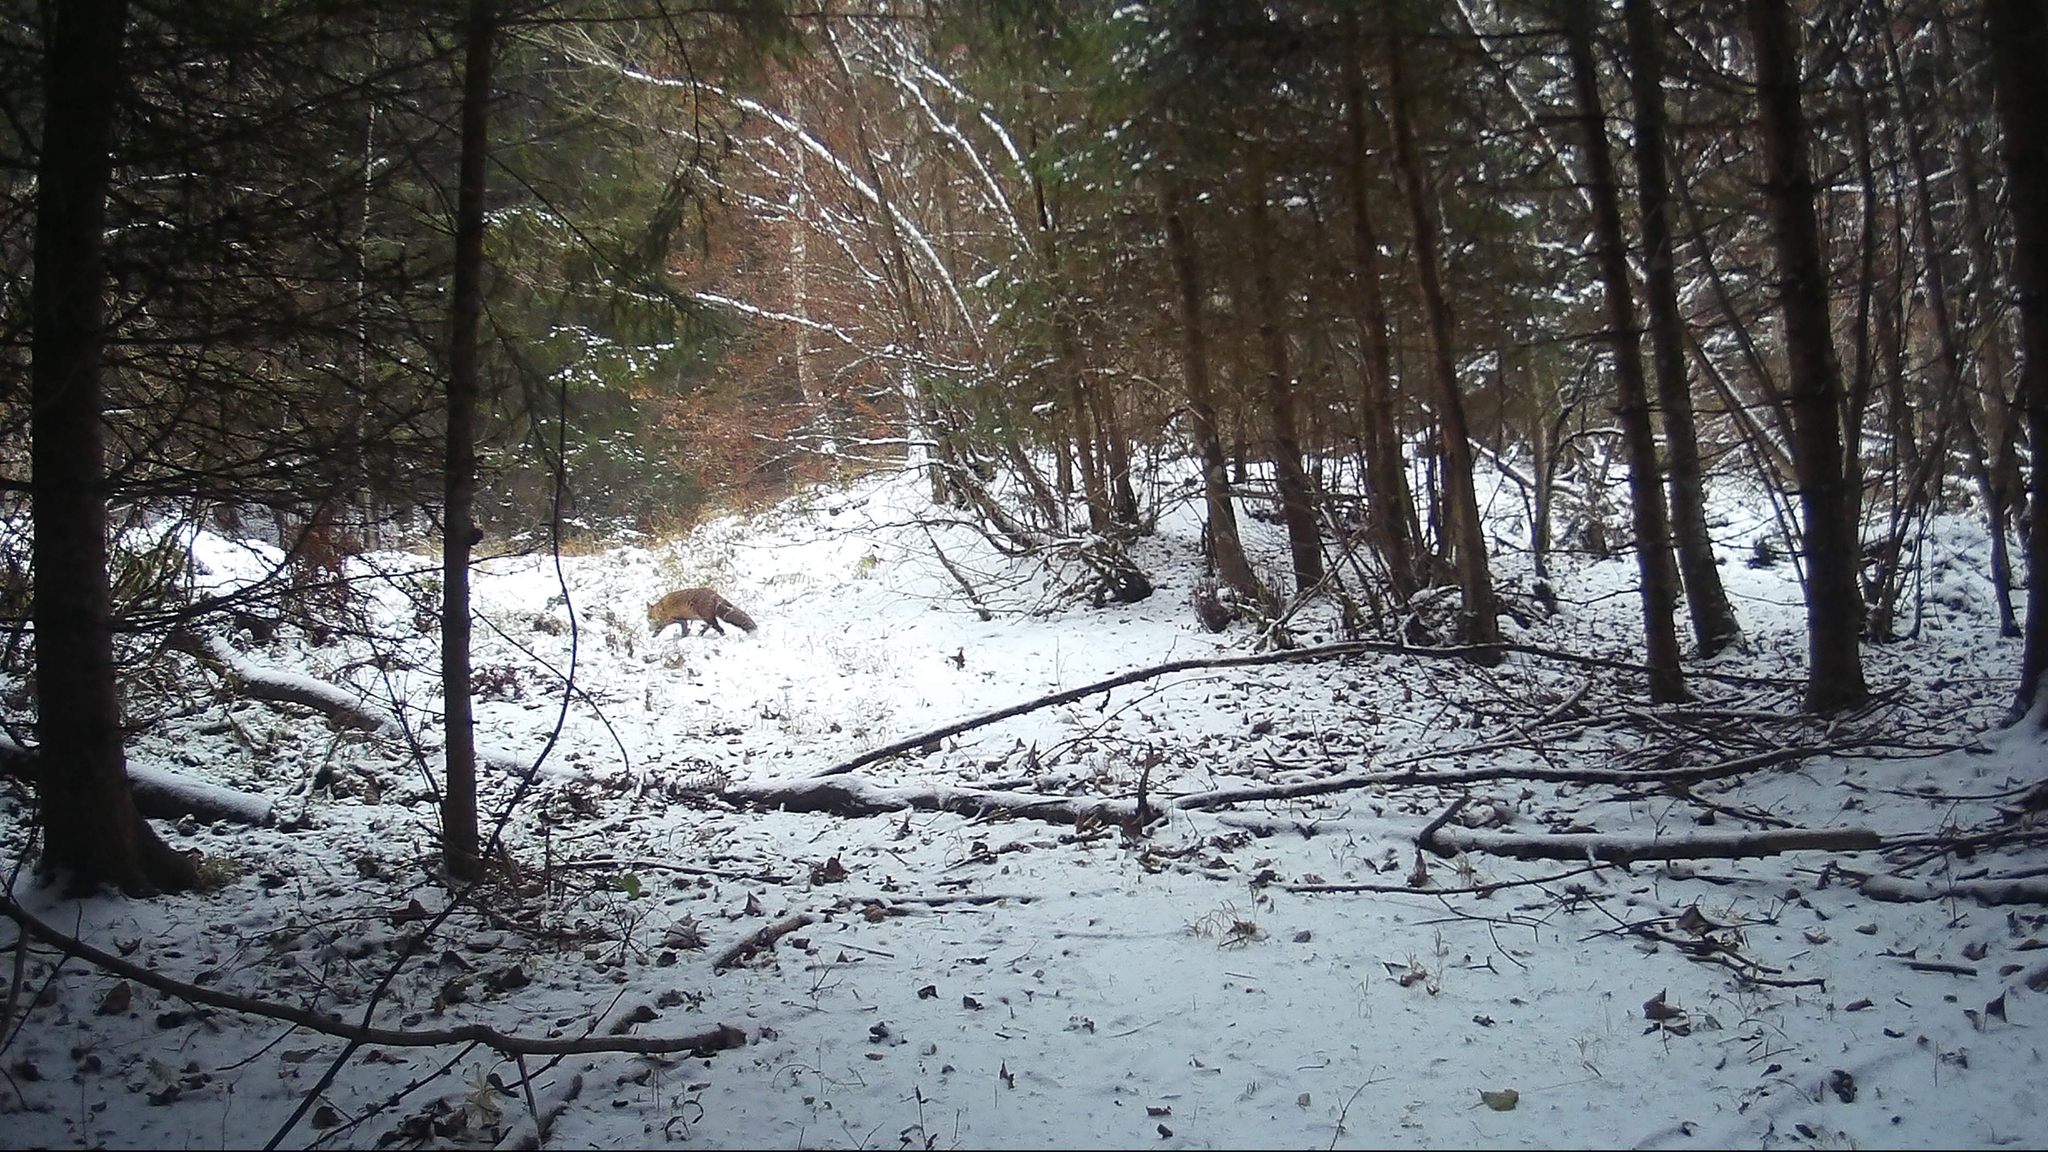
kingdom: Animalia
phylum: Chordata
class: Mammalia
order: Carnivora
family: Canidae
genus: Vulpes
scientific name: Vulpes vulpes
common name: Red fox
